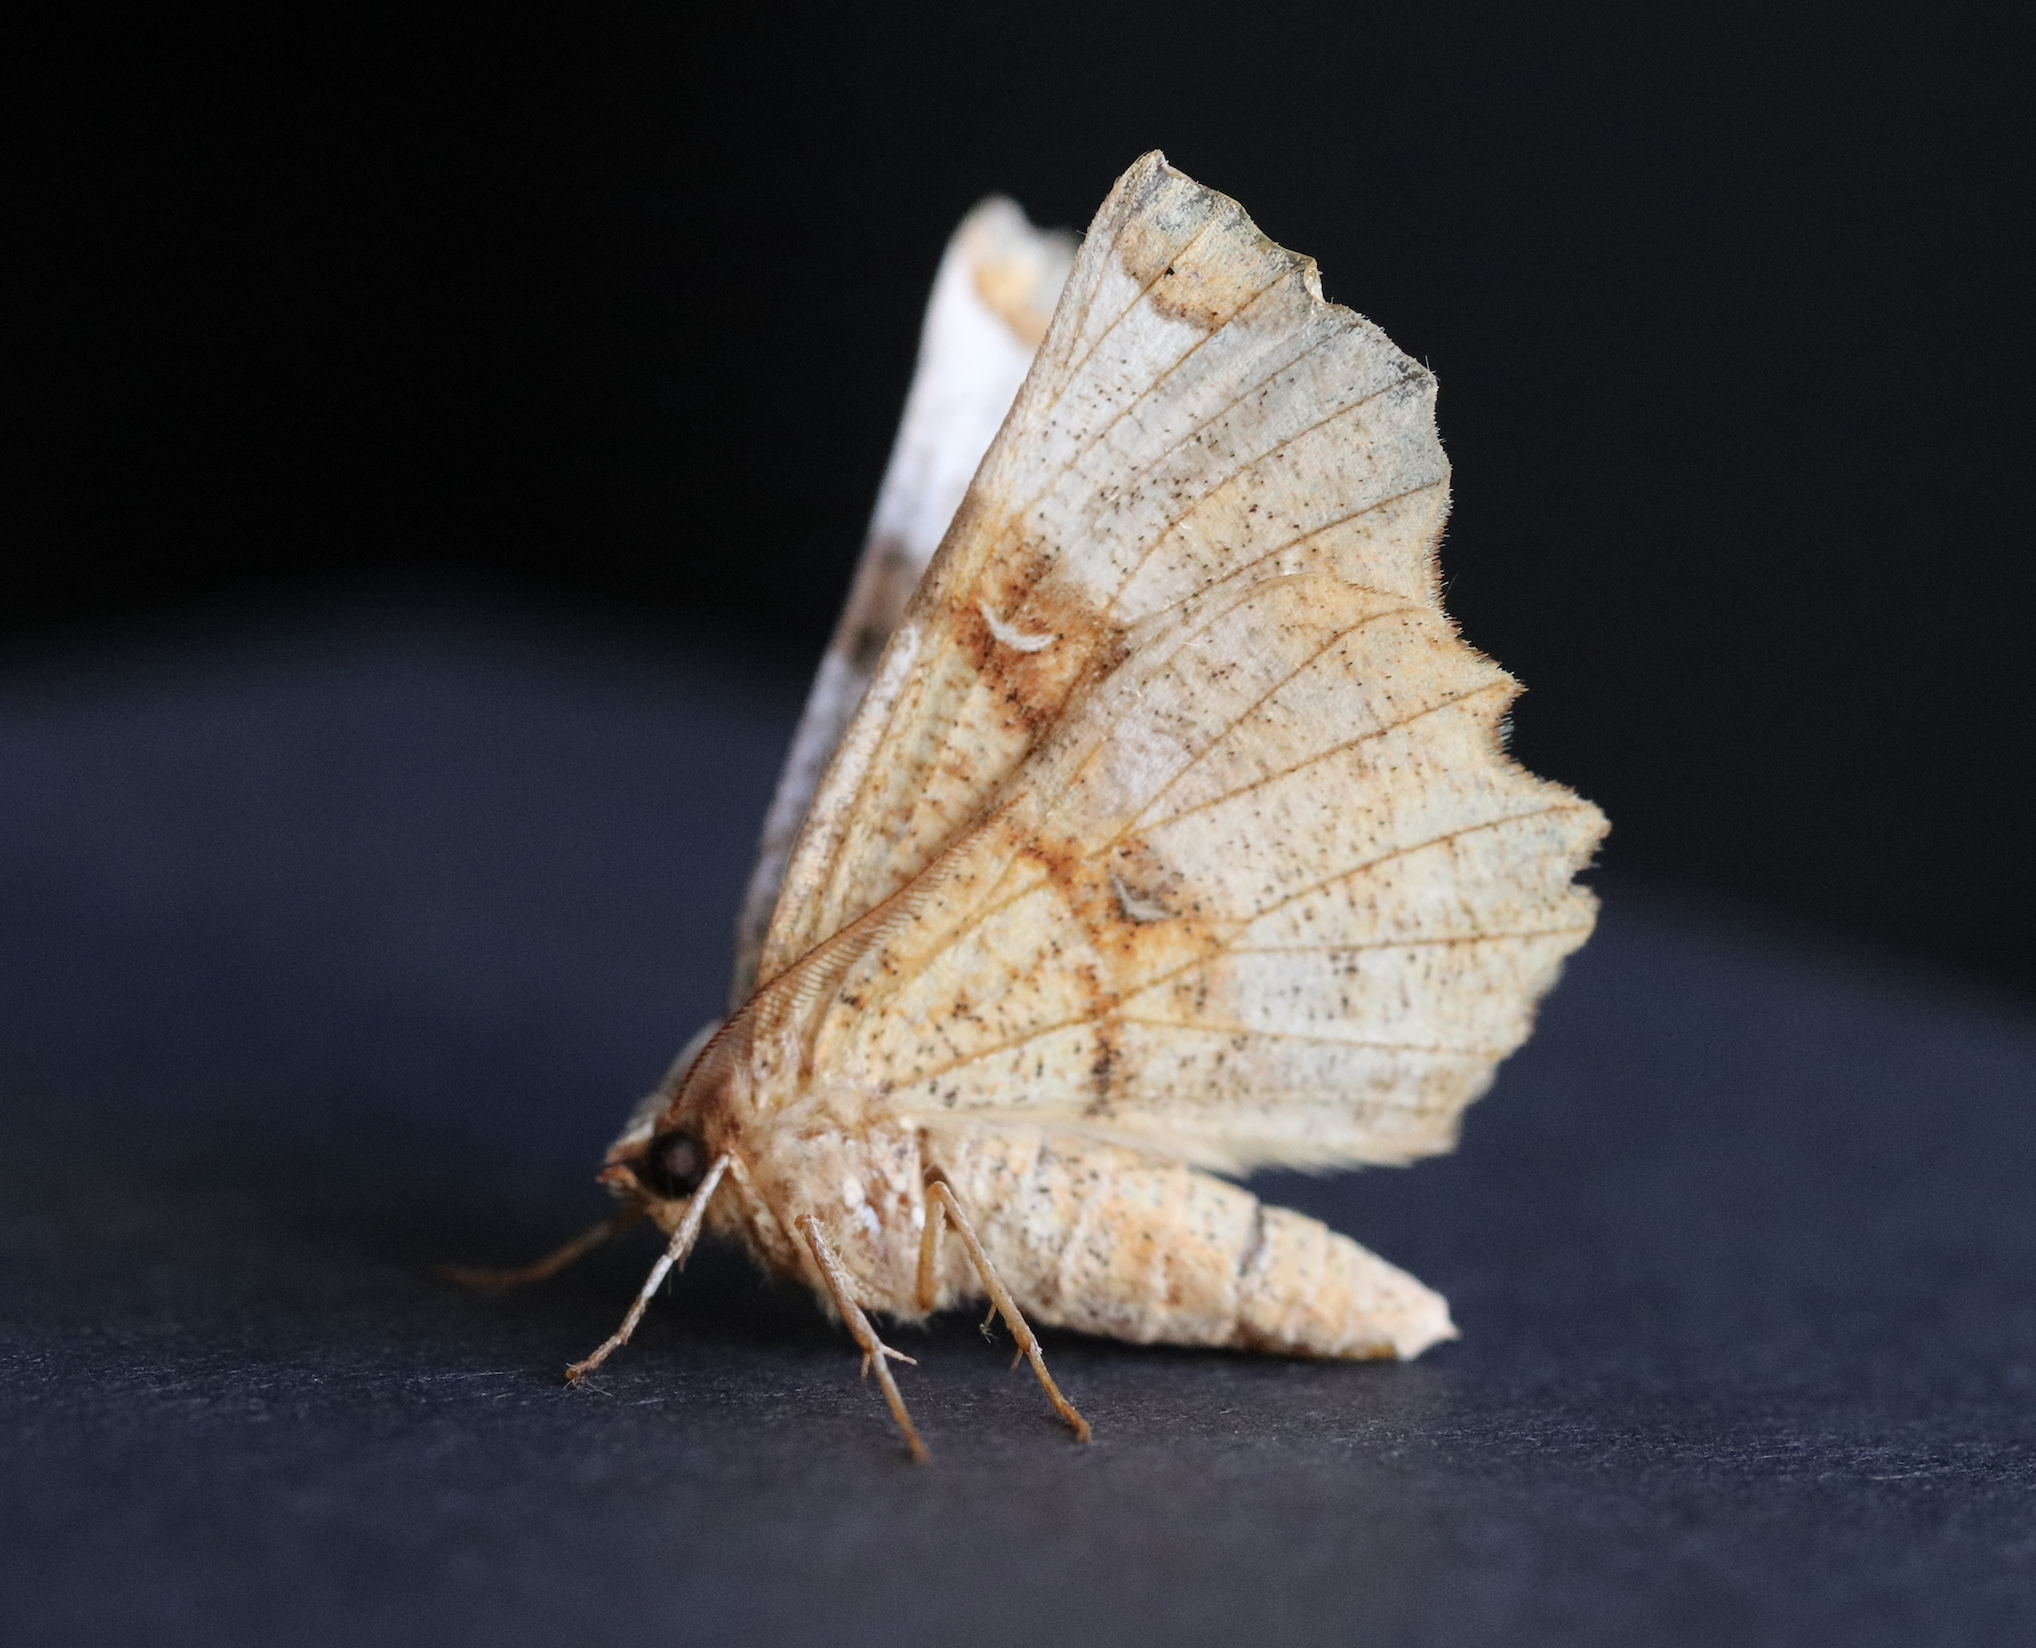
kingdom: Animalia
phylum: Arthropoda
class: Insecta
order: Lepidoptera
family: Geometridae
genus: Selenia
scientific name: Selenia lunularia
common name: Lunar thorn
